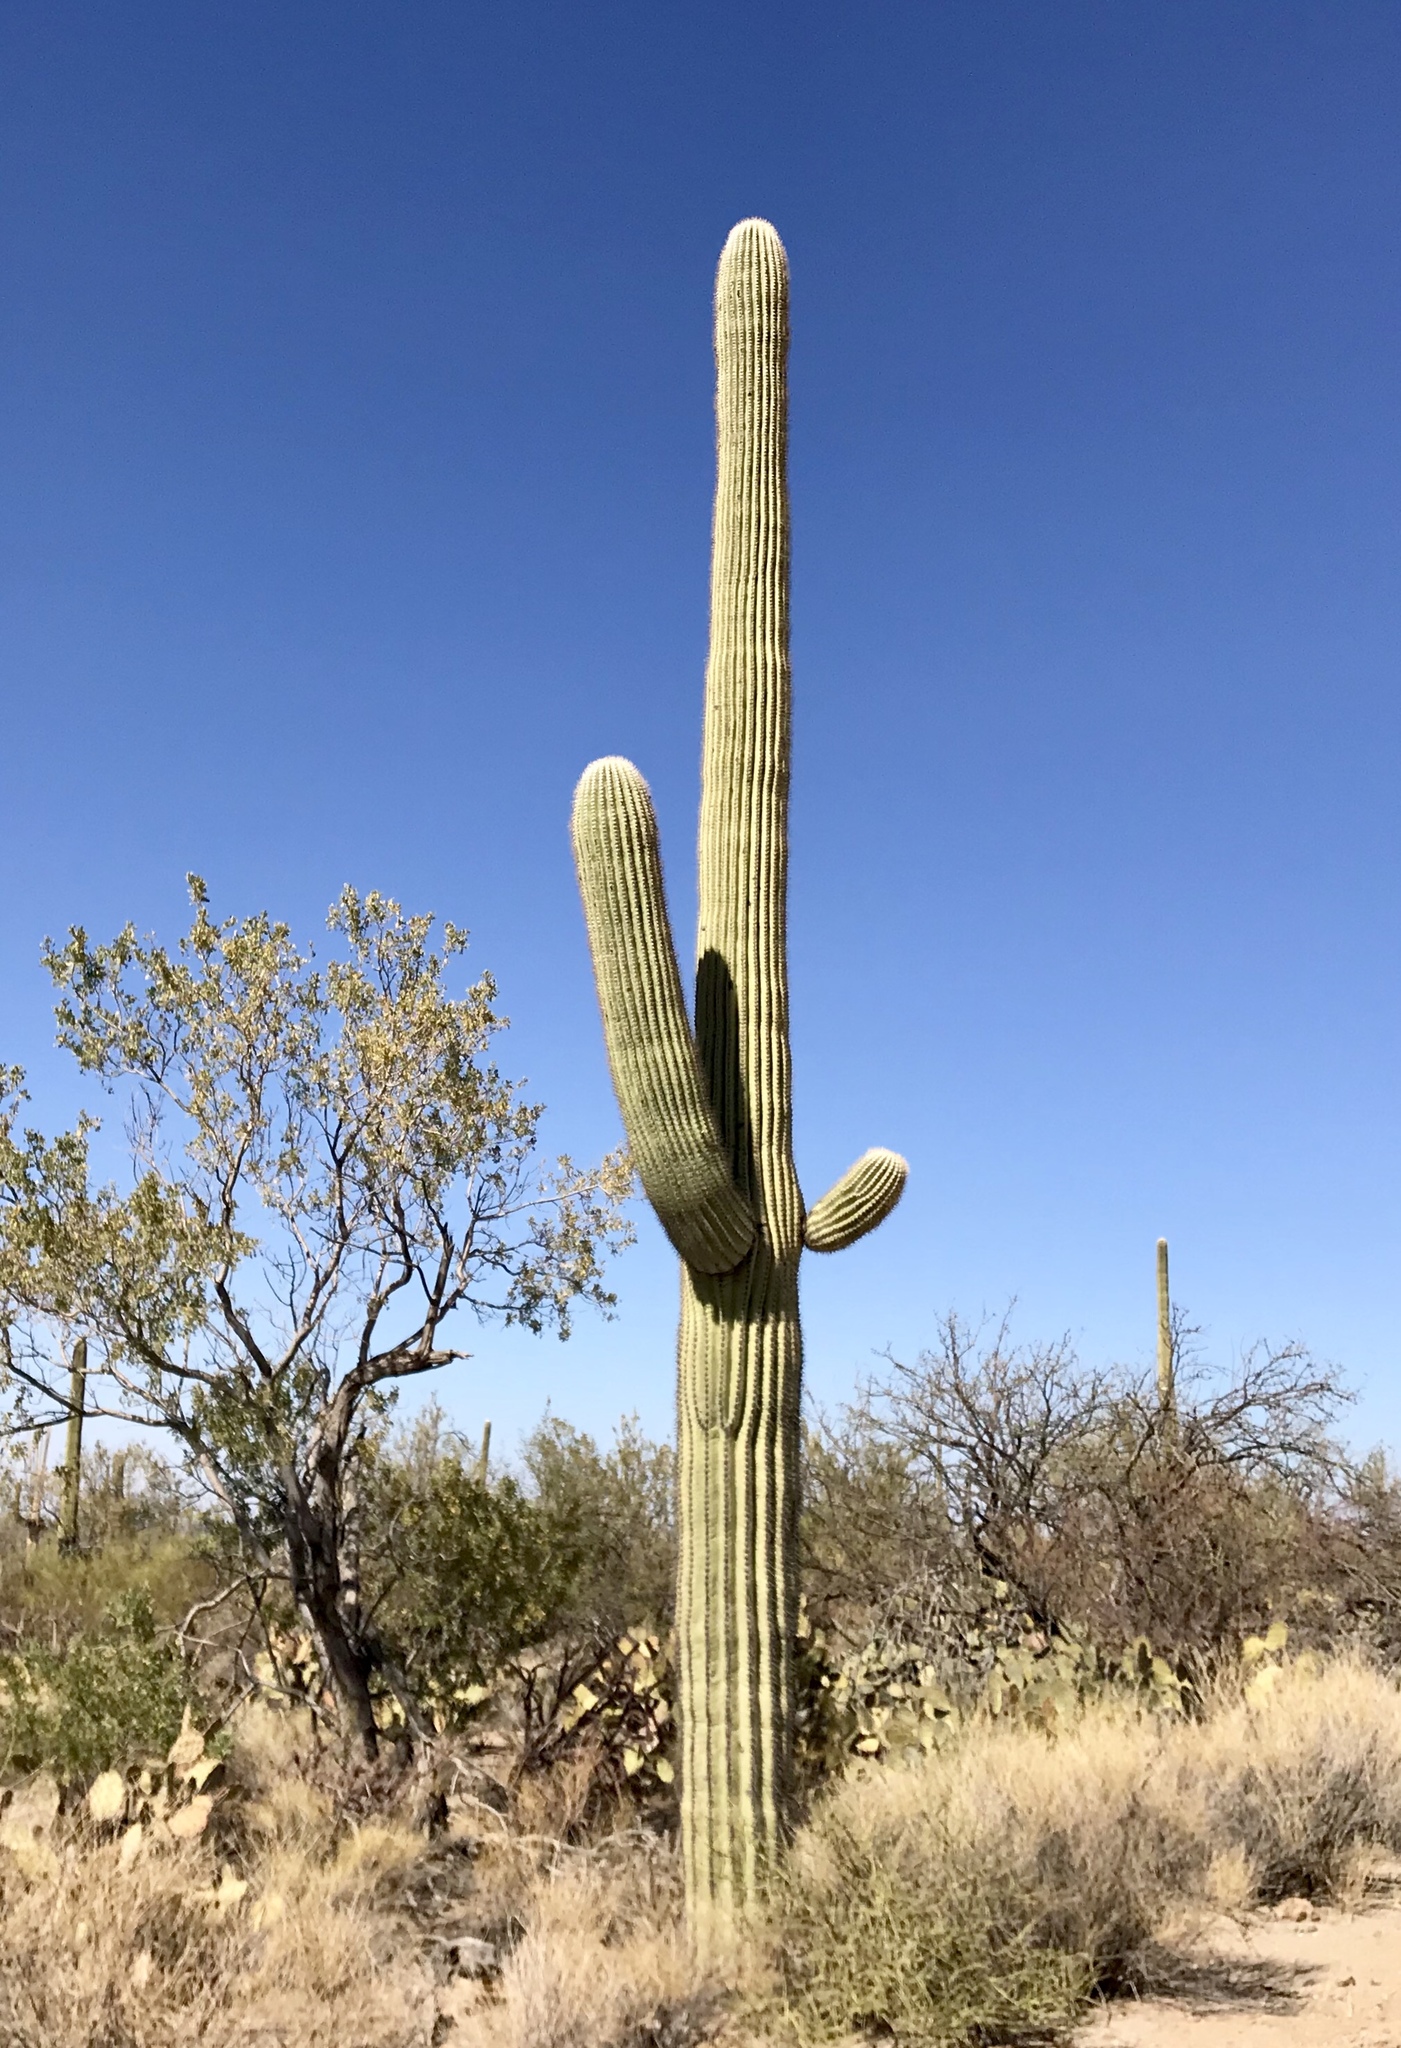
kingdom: Plantae
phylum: Tracheophyta
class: Magnoliopsida
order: Caryophyllales
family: Cactaceae
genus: Carnegiea
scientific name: Carnegiea gigantea
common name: Saguaro
